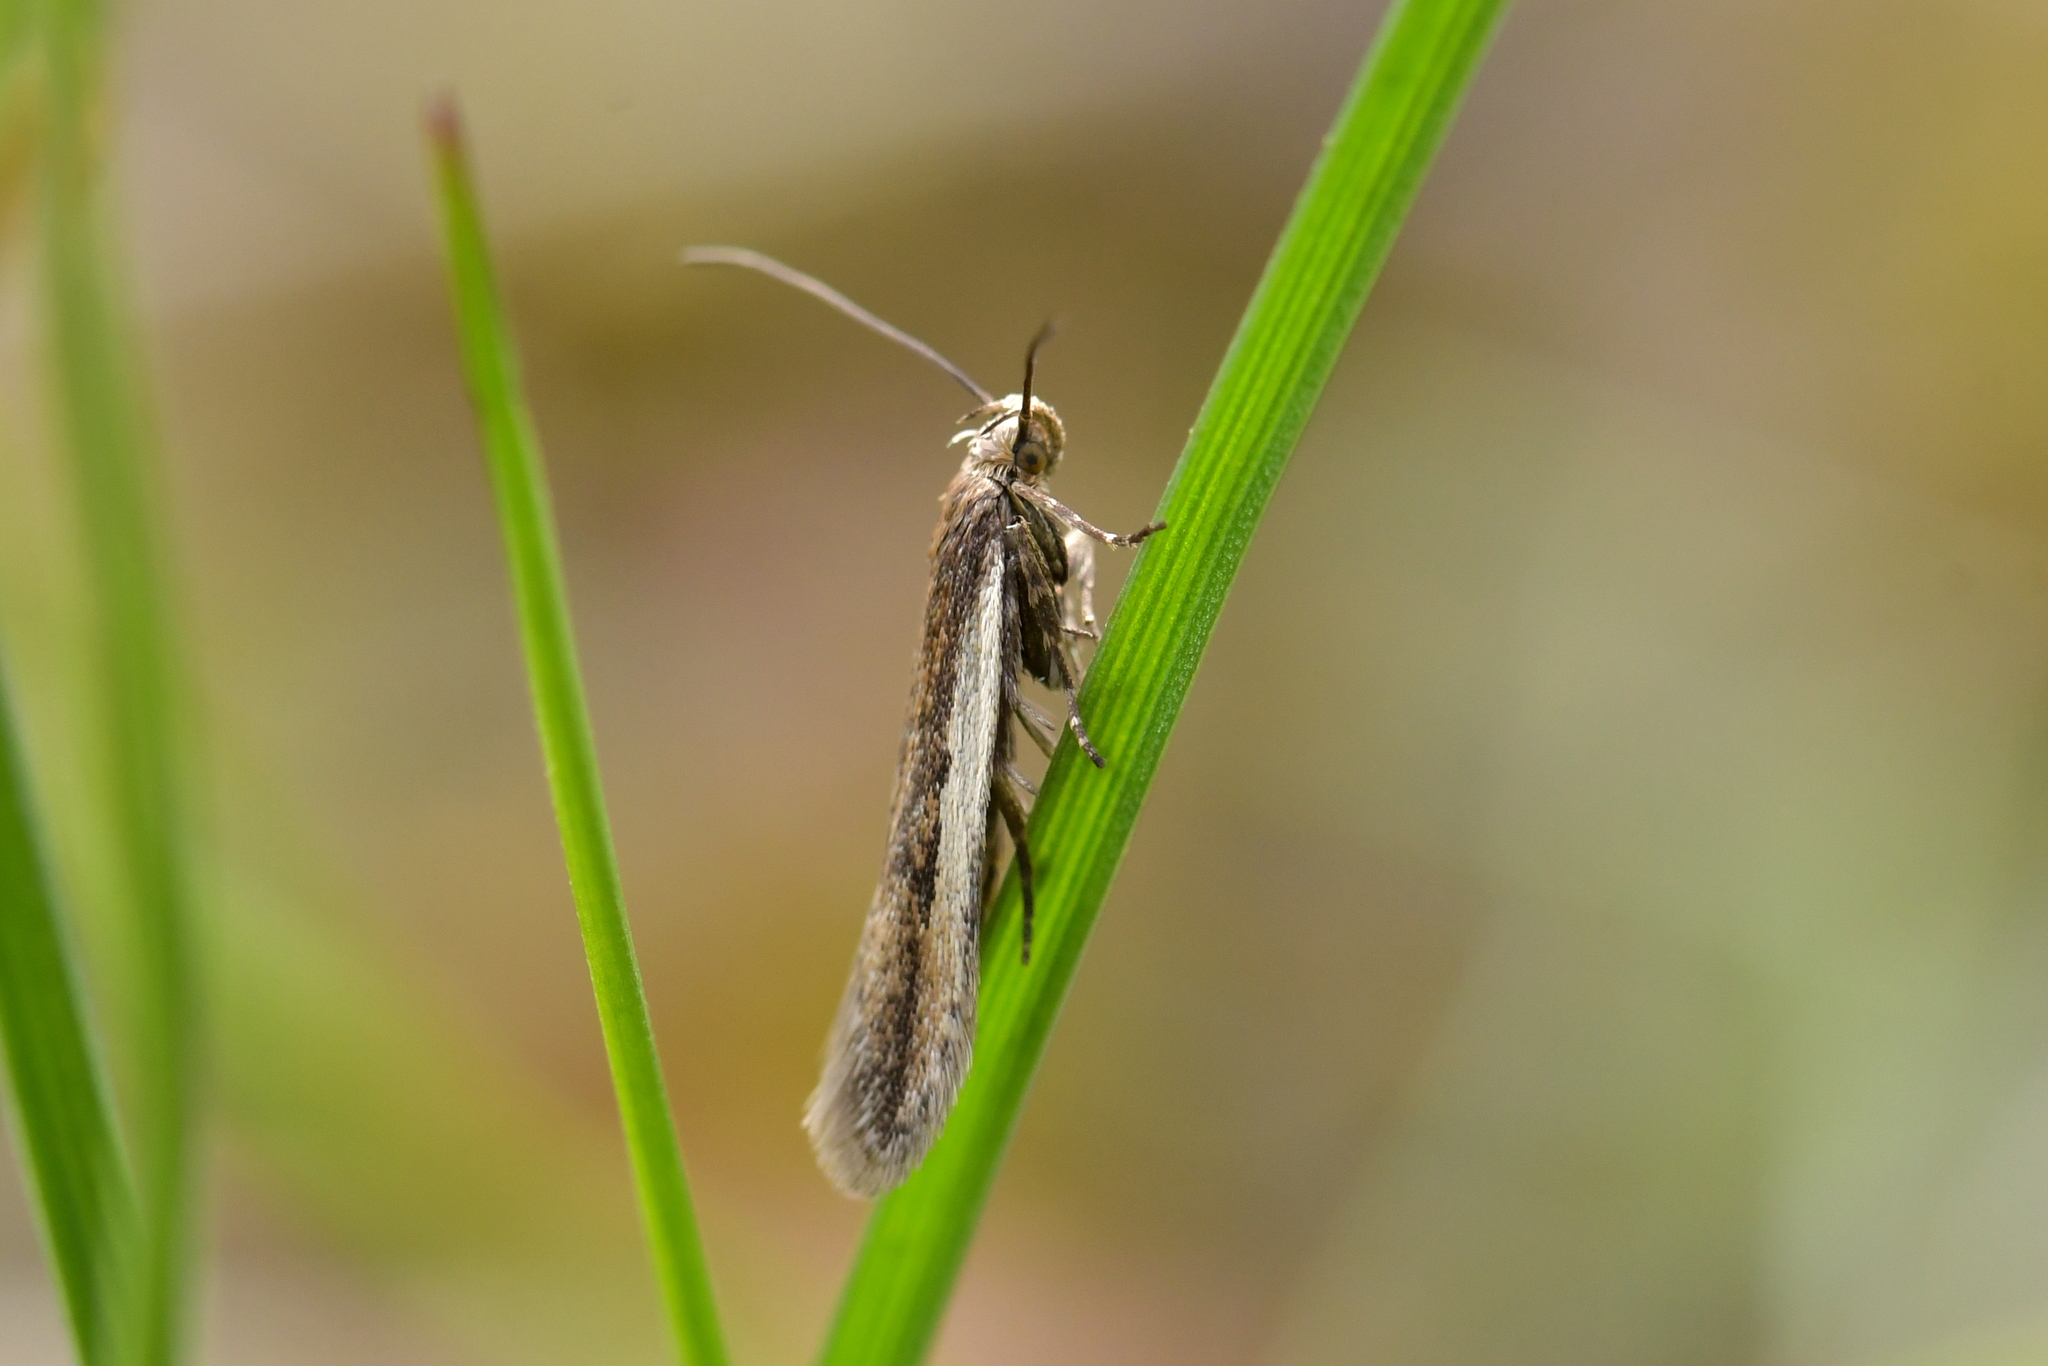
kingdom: Animalia
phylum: Arthropoda
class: Insecta
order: Lepidoptera
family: Gelechiidae
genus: Kiwaia
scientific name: Kiwaia aerobatis
